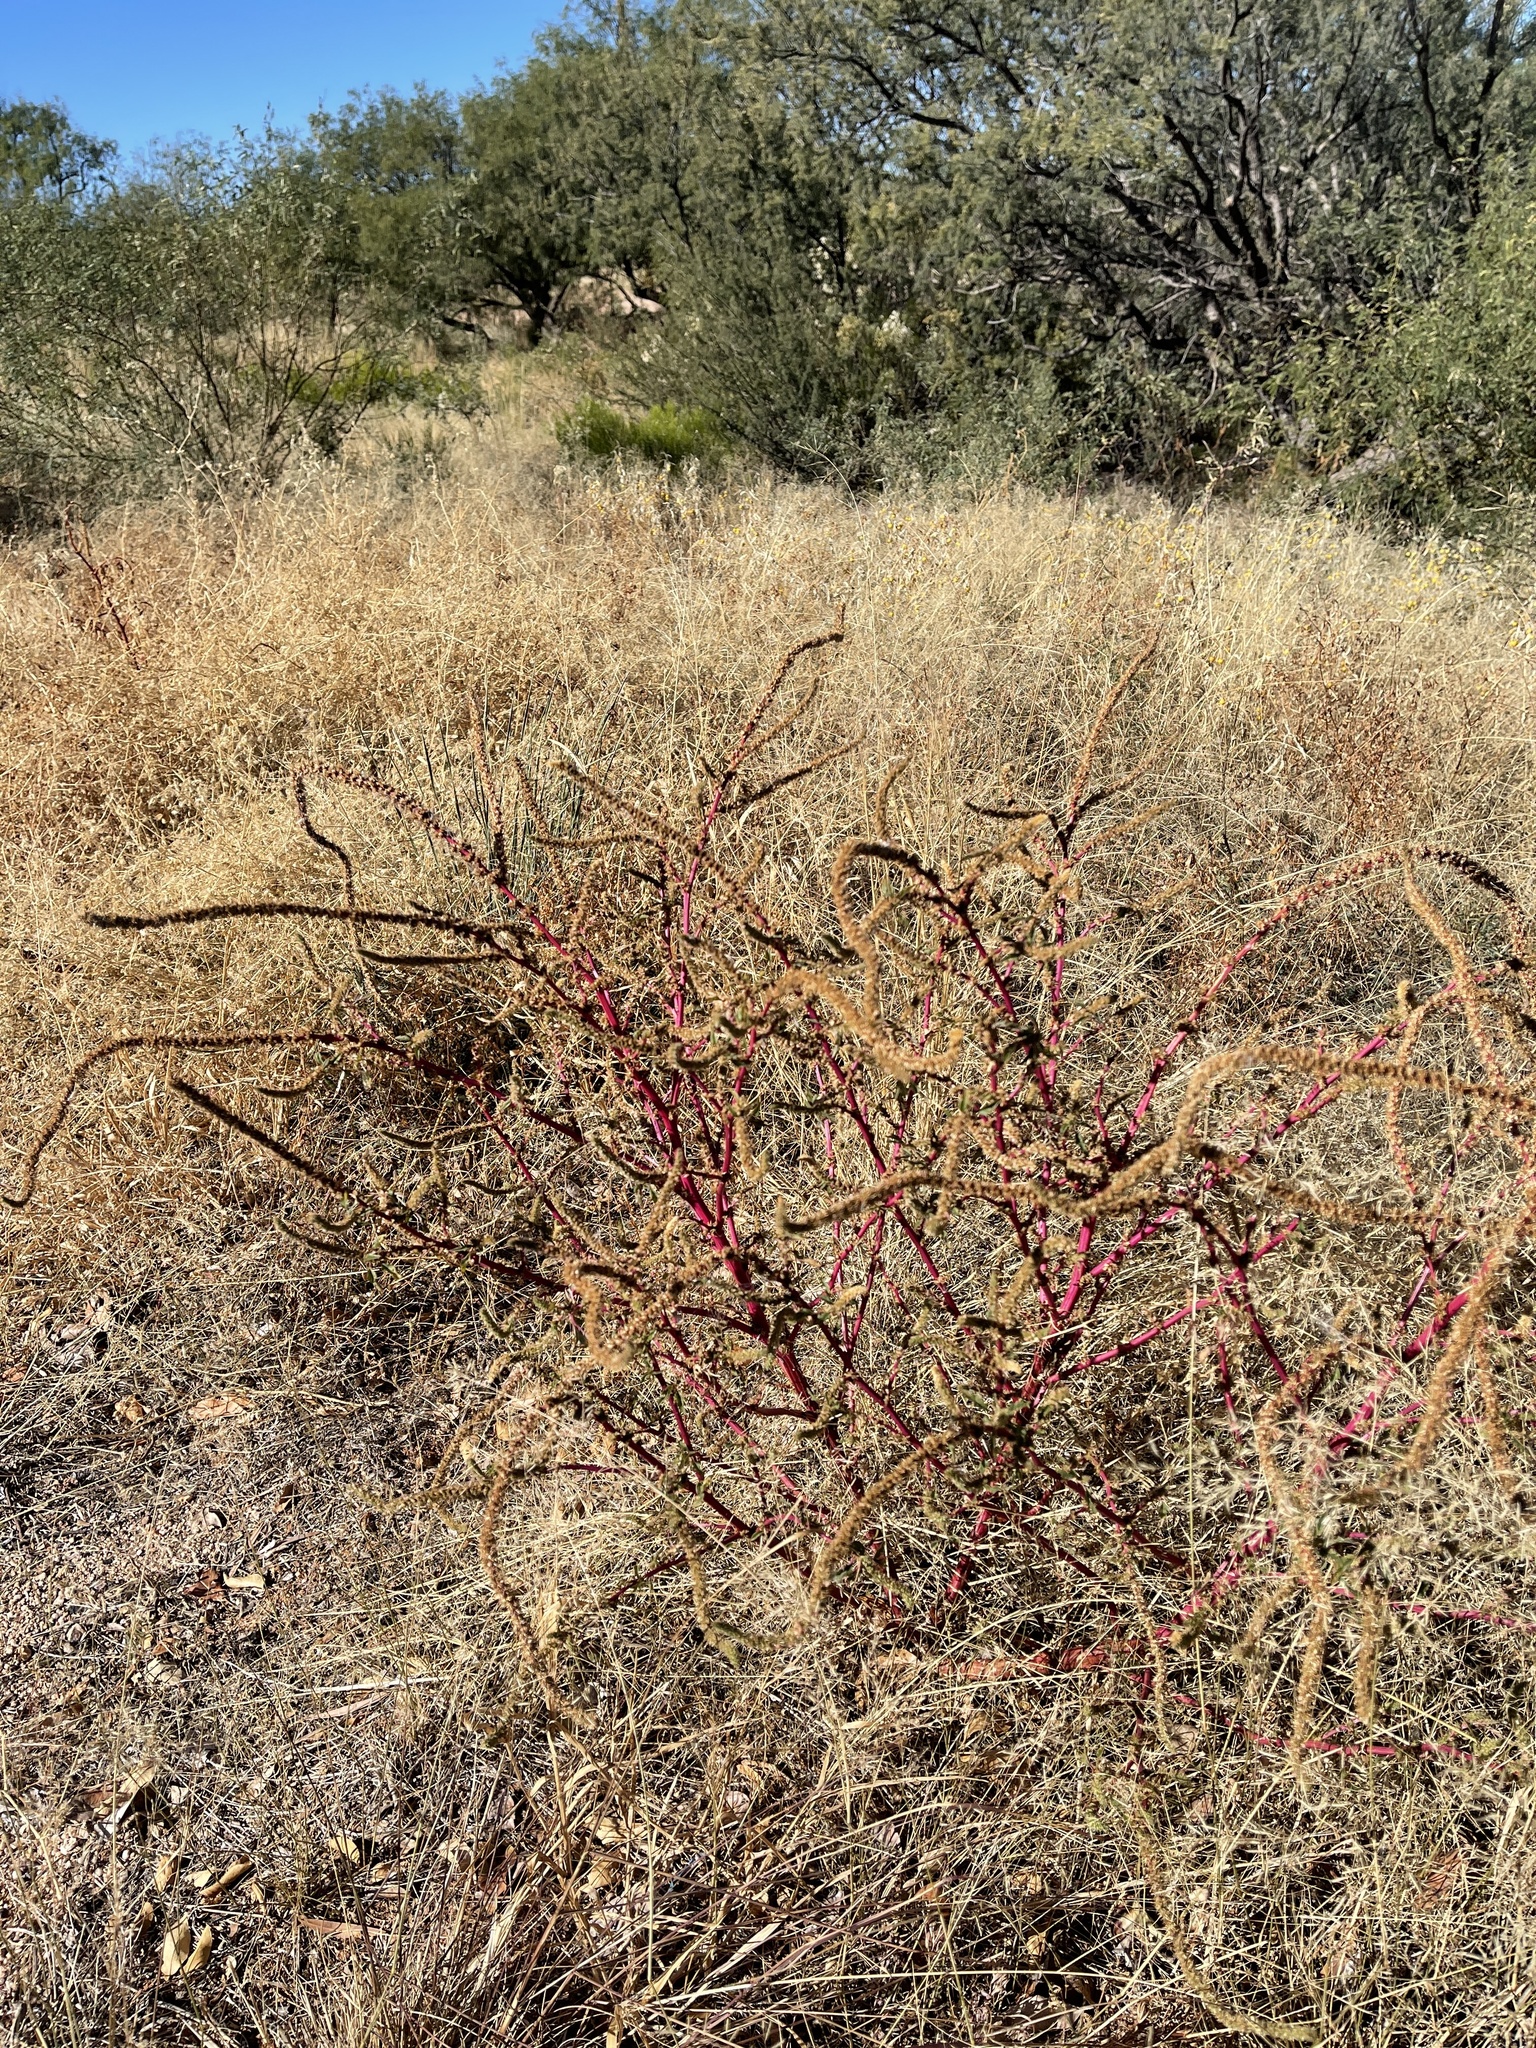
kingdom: Plantae
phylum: Tracheophyta
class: Magnoliopsida
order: Caryophyllales
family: Amaranthaceae
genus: Amaranthus
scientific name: Amaranthus palmeri
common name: Dioecious amaranth
